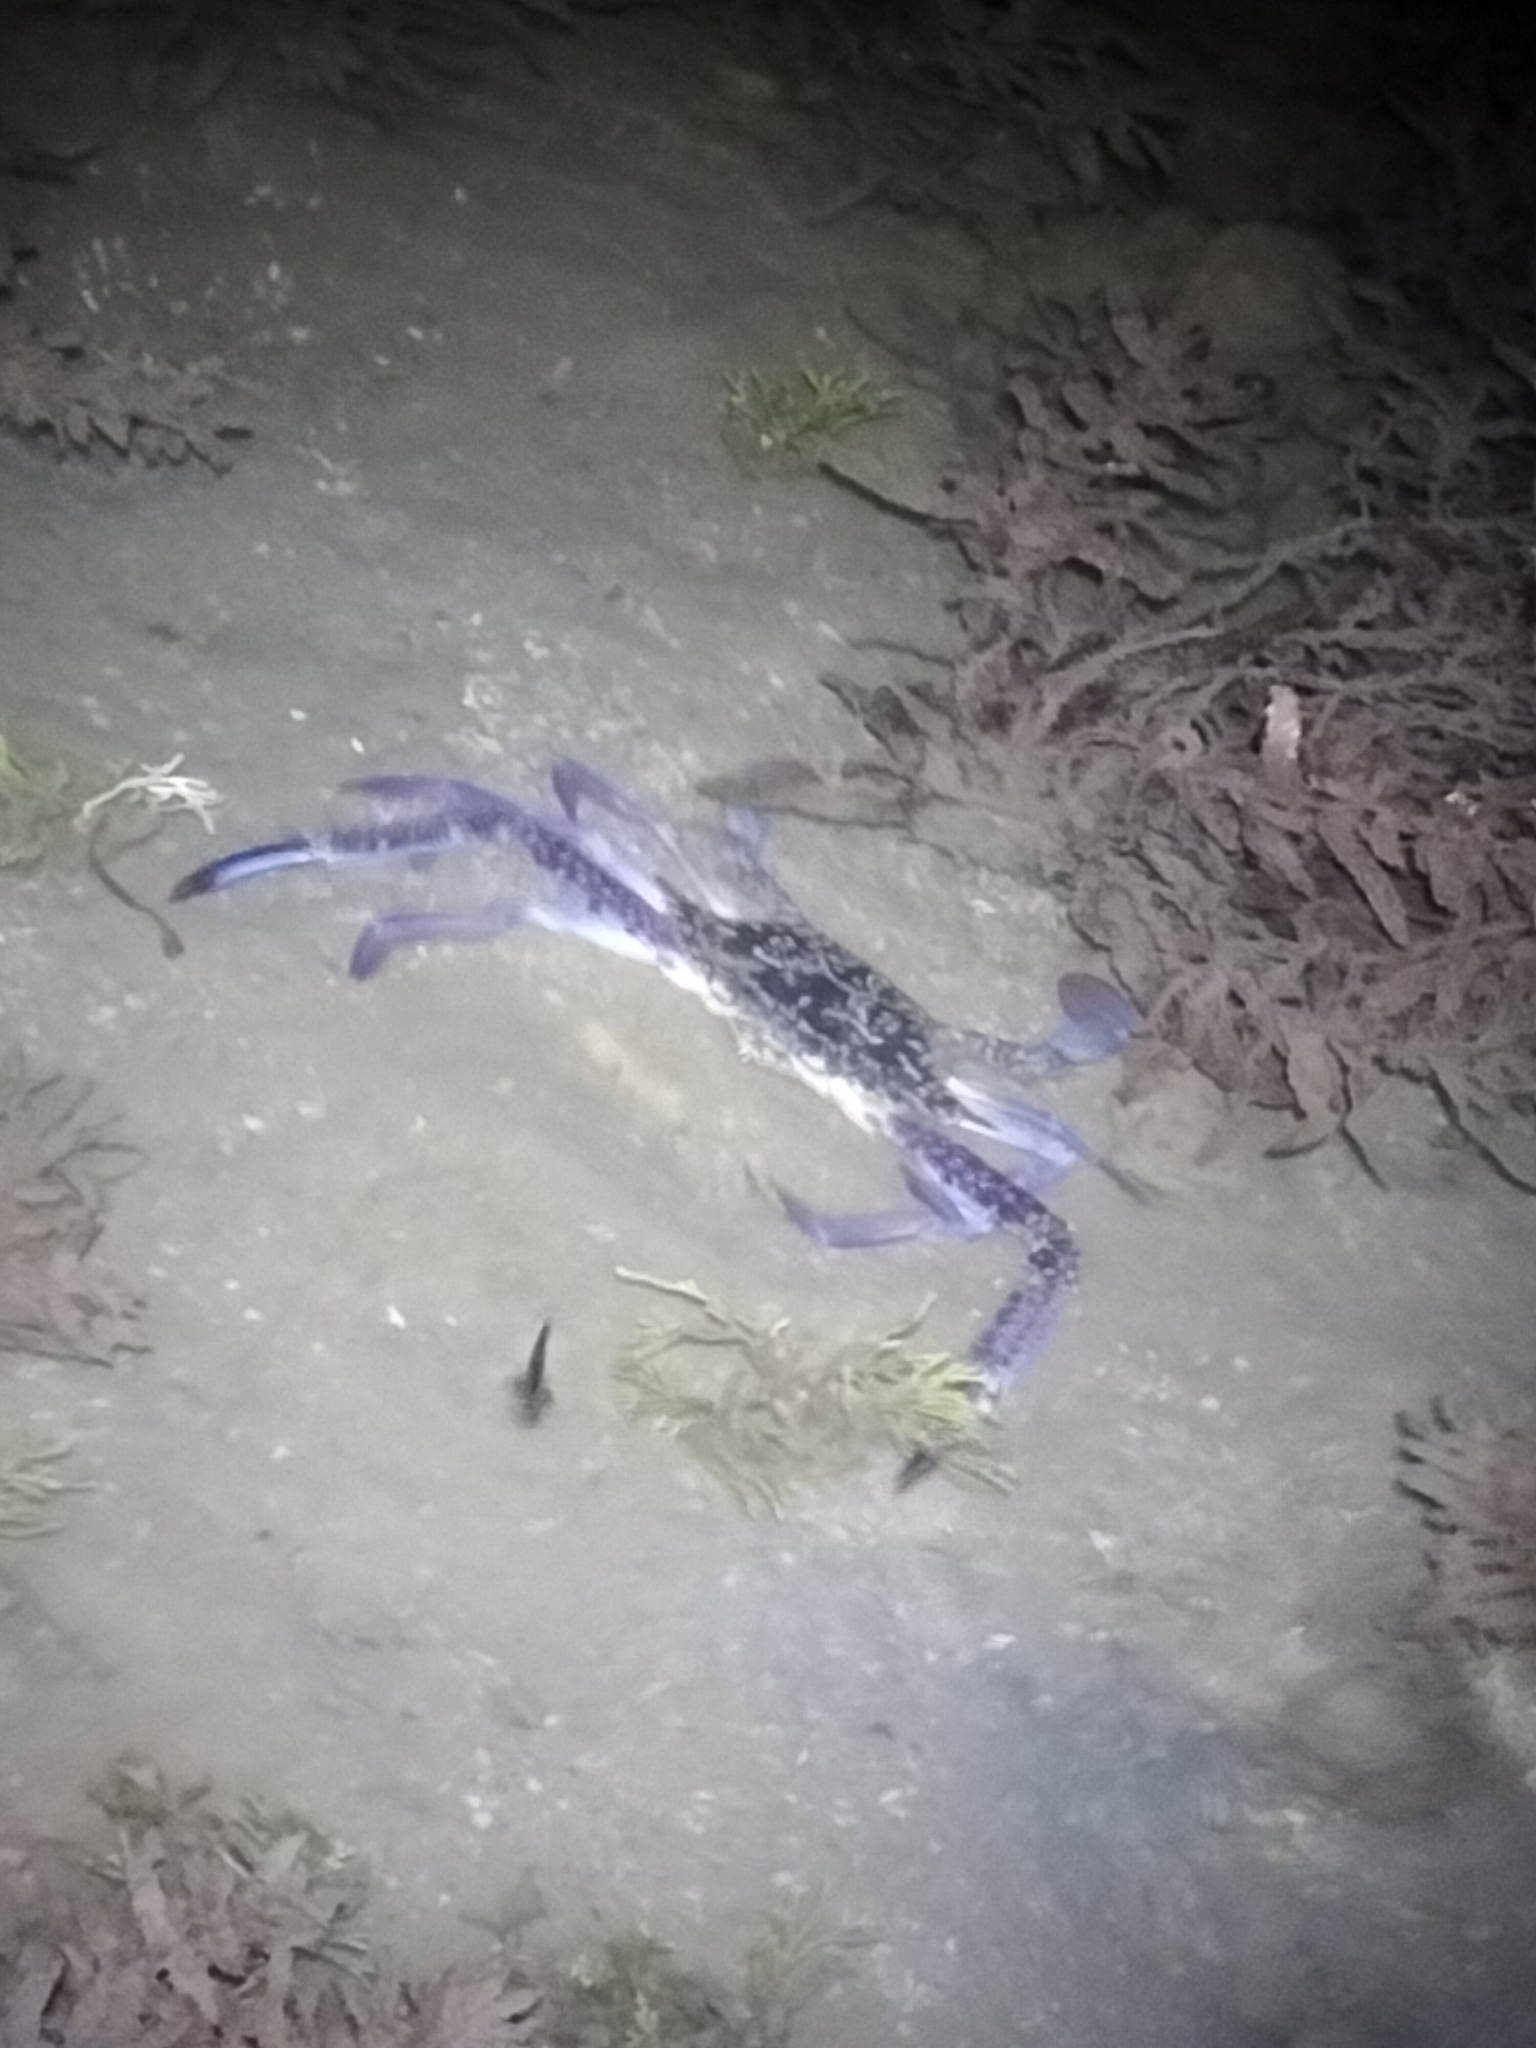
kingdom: Animalia
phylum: Arthropoda
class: Malacostraca
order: Decapoda
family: Portunidae
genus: Portunus
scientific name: Portunus armatus
